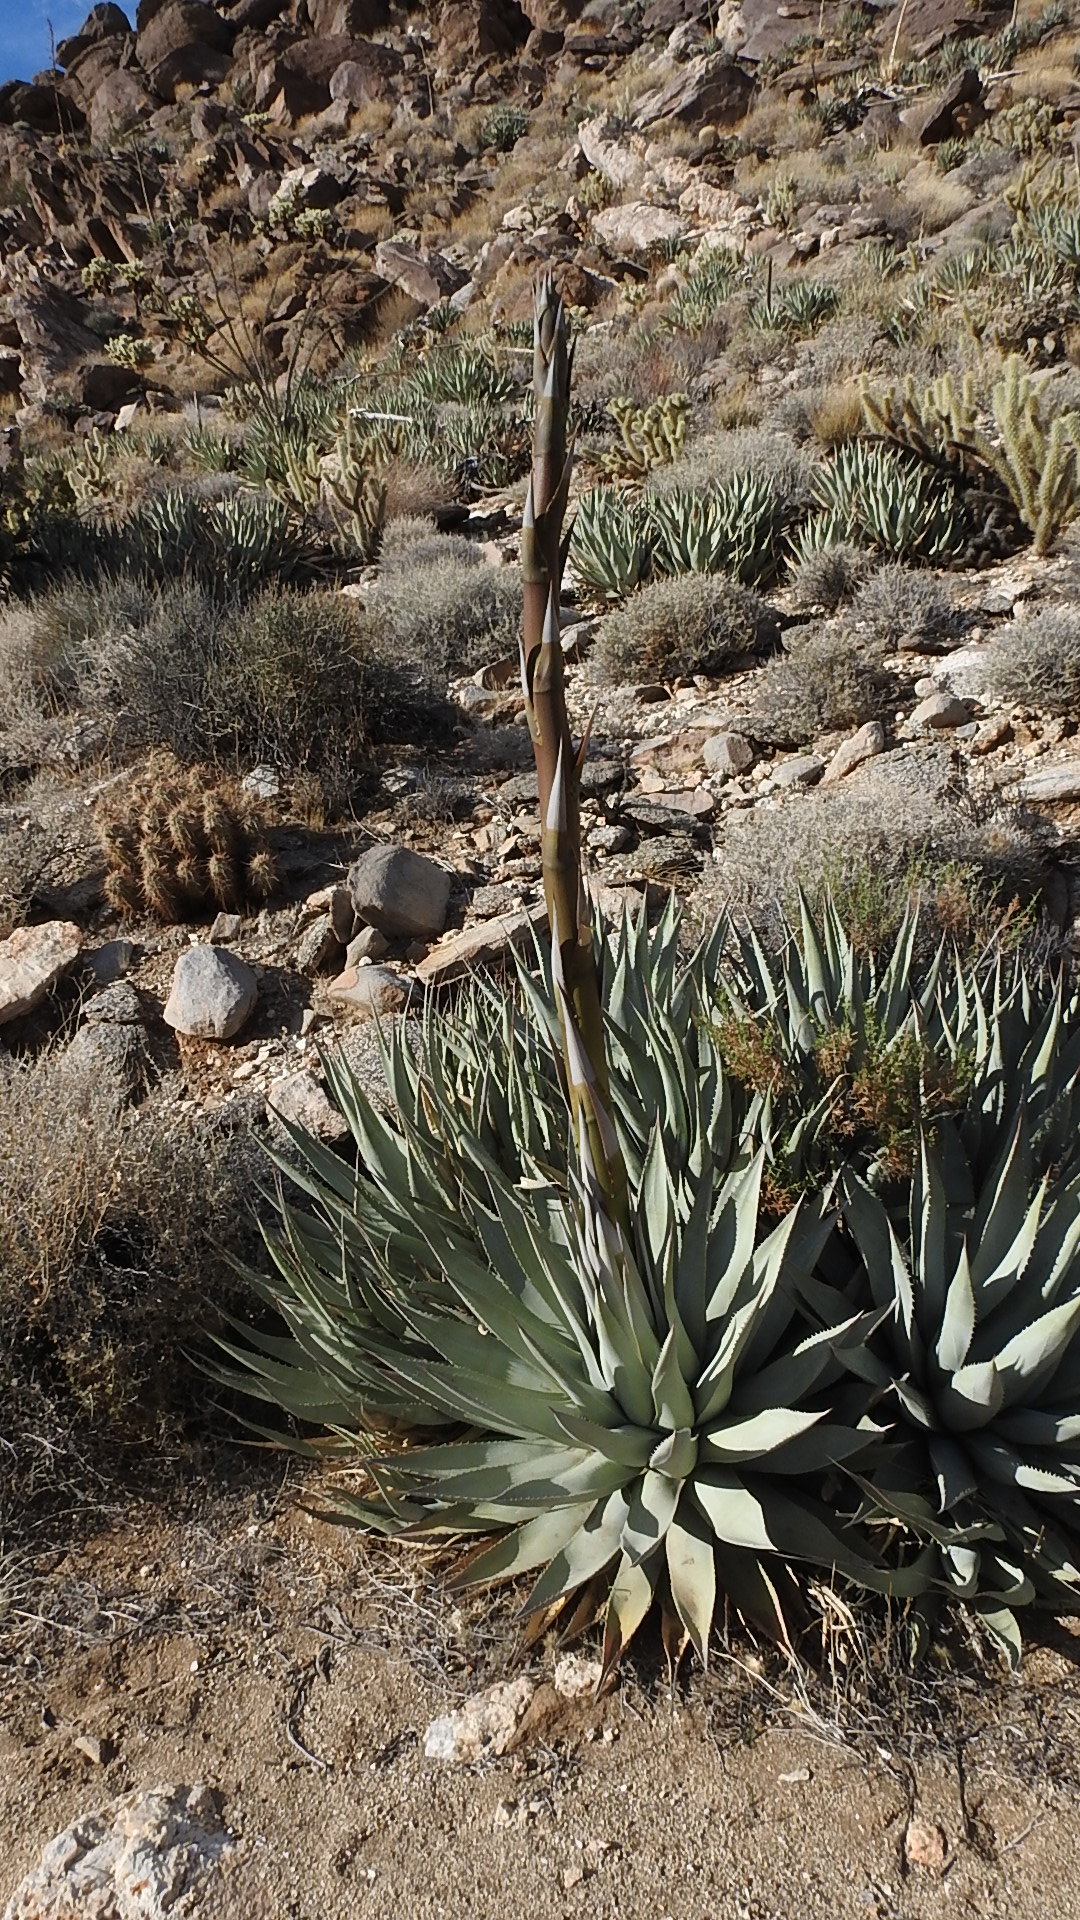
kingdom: Plantae
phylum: Tracheophyta
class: Liliopsida
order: Asparagales
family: Asparagaceae
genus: Agave
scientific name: Agave deserti
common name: Desert agave
